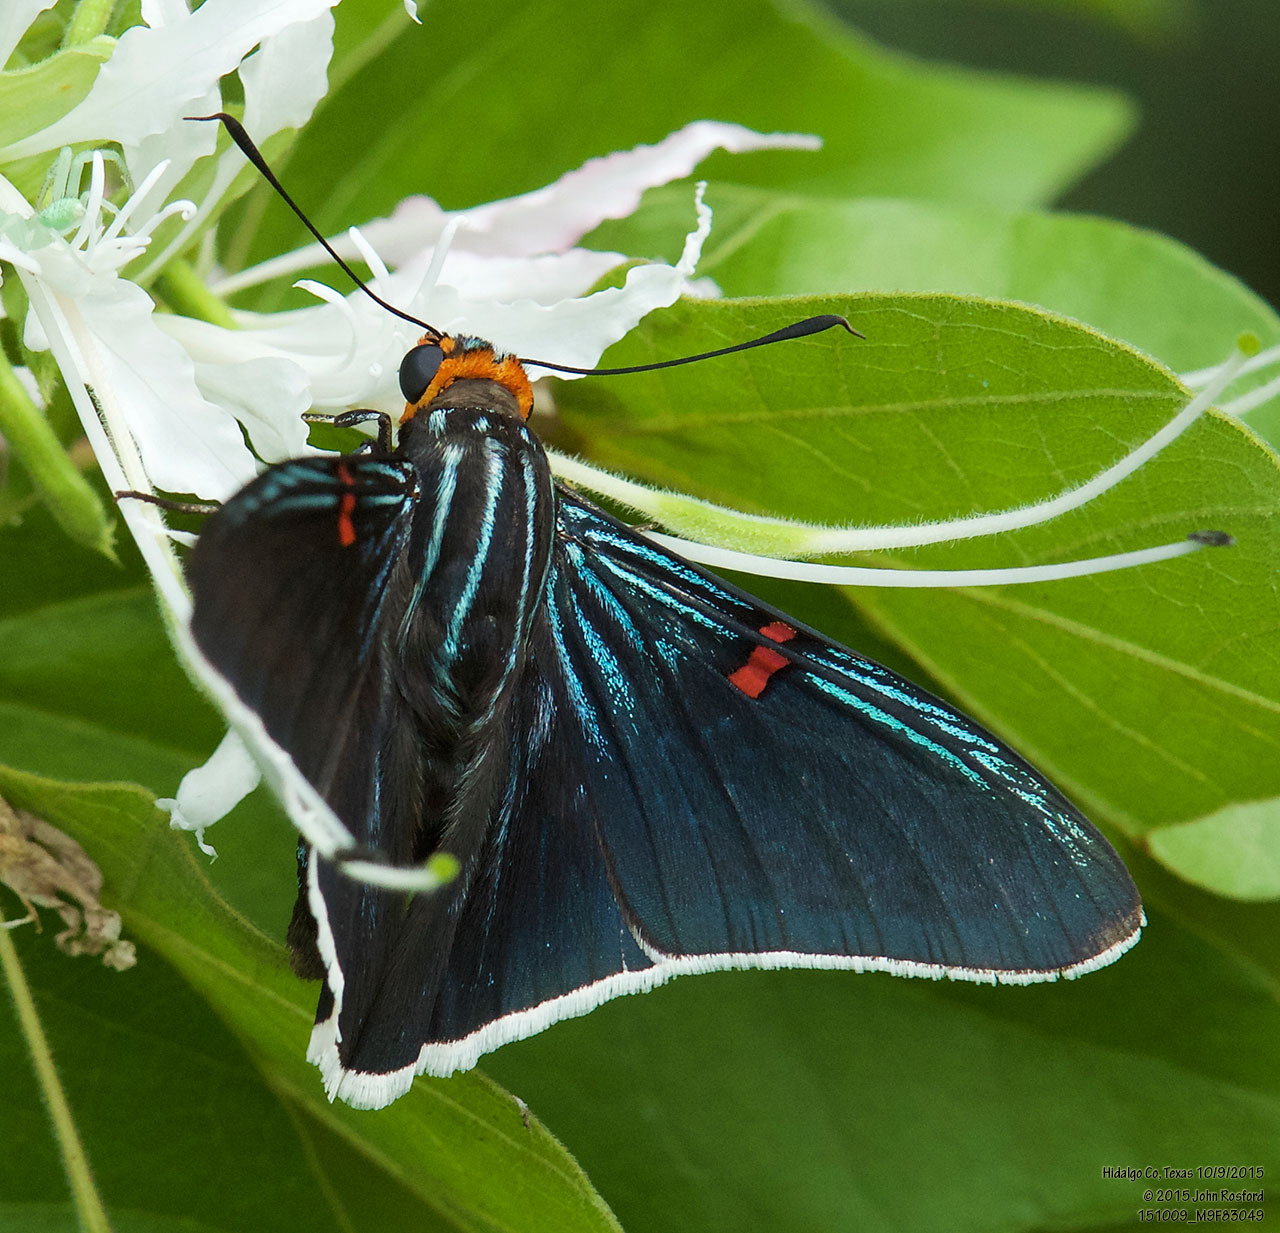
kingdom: Animalia
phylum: Arthropoda
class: Insecta
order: Lepidoptera
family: Hesperiidae
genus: Phocides
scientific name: Phocides lilea
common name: Guava skipper
